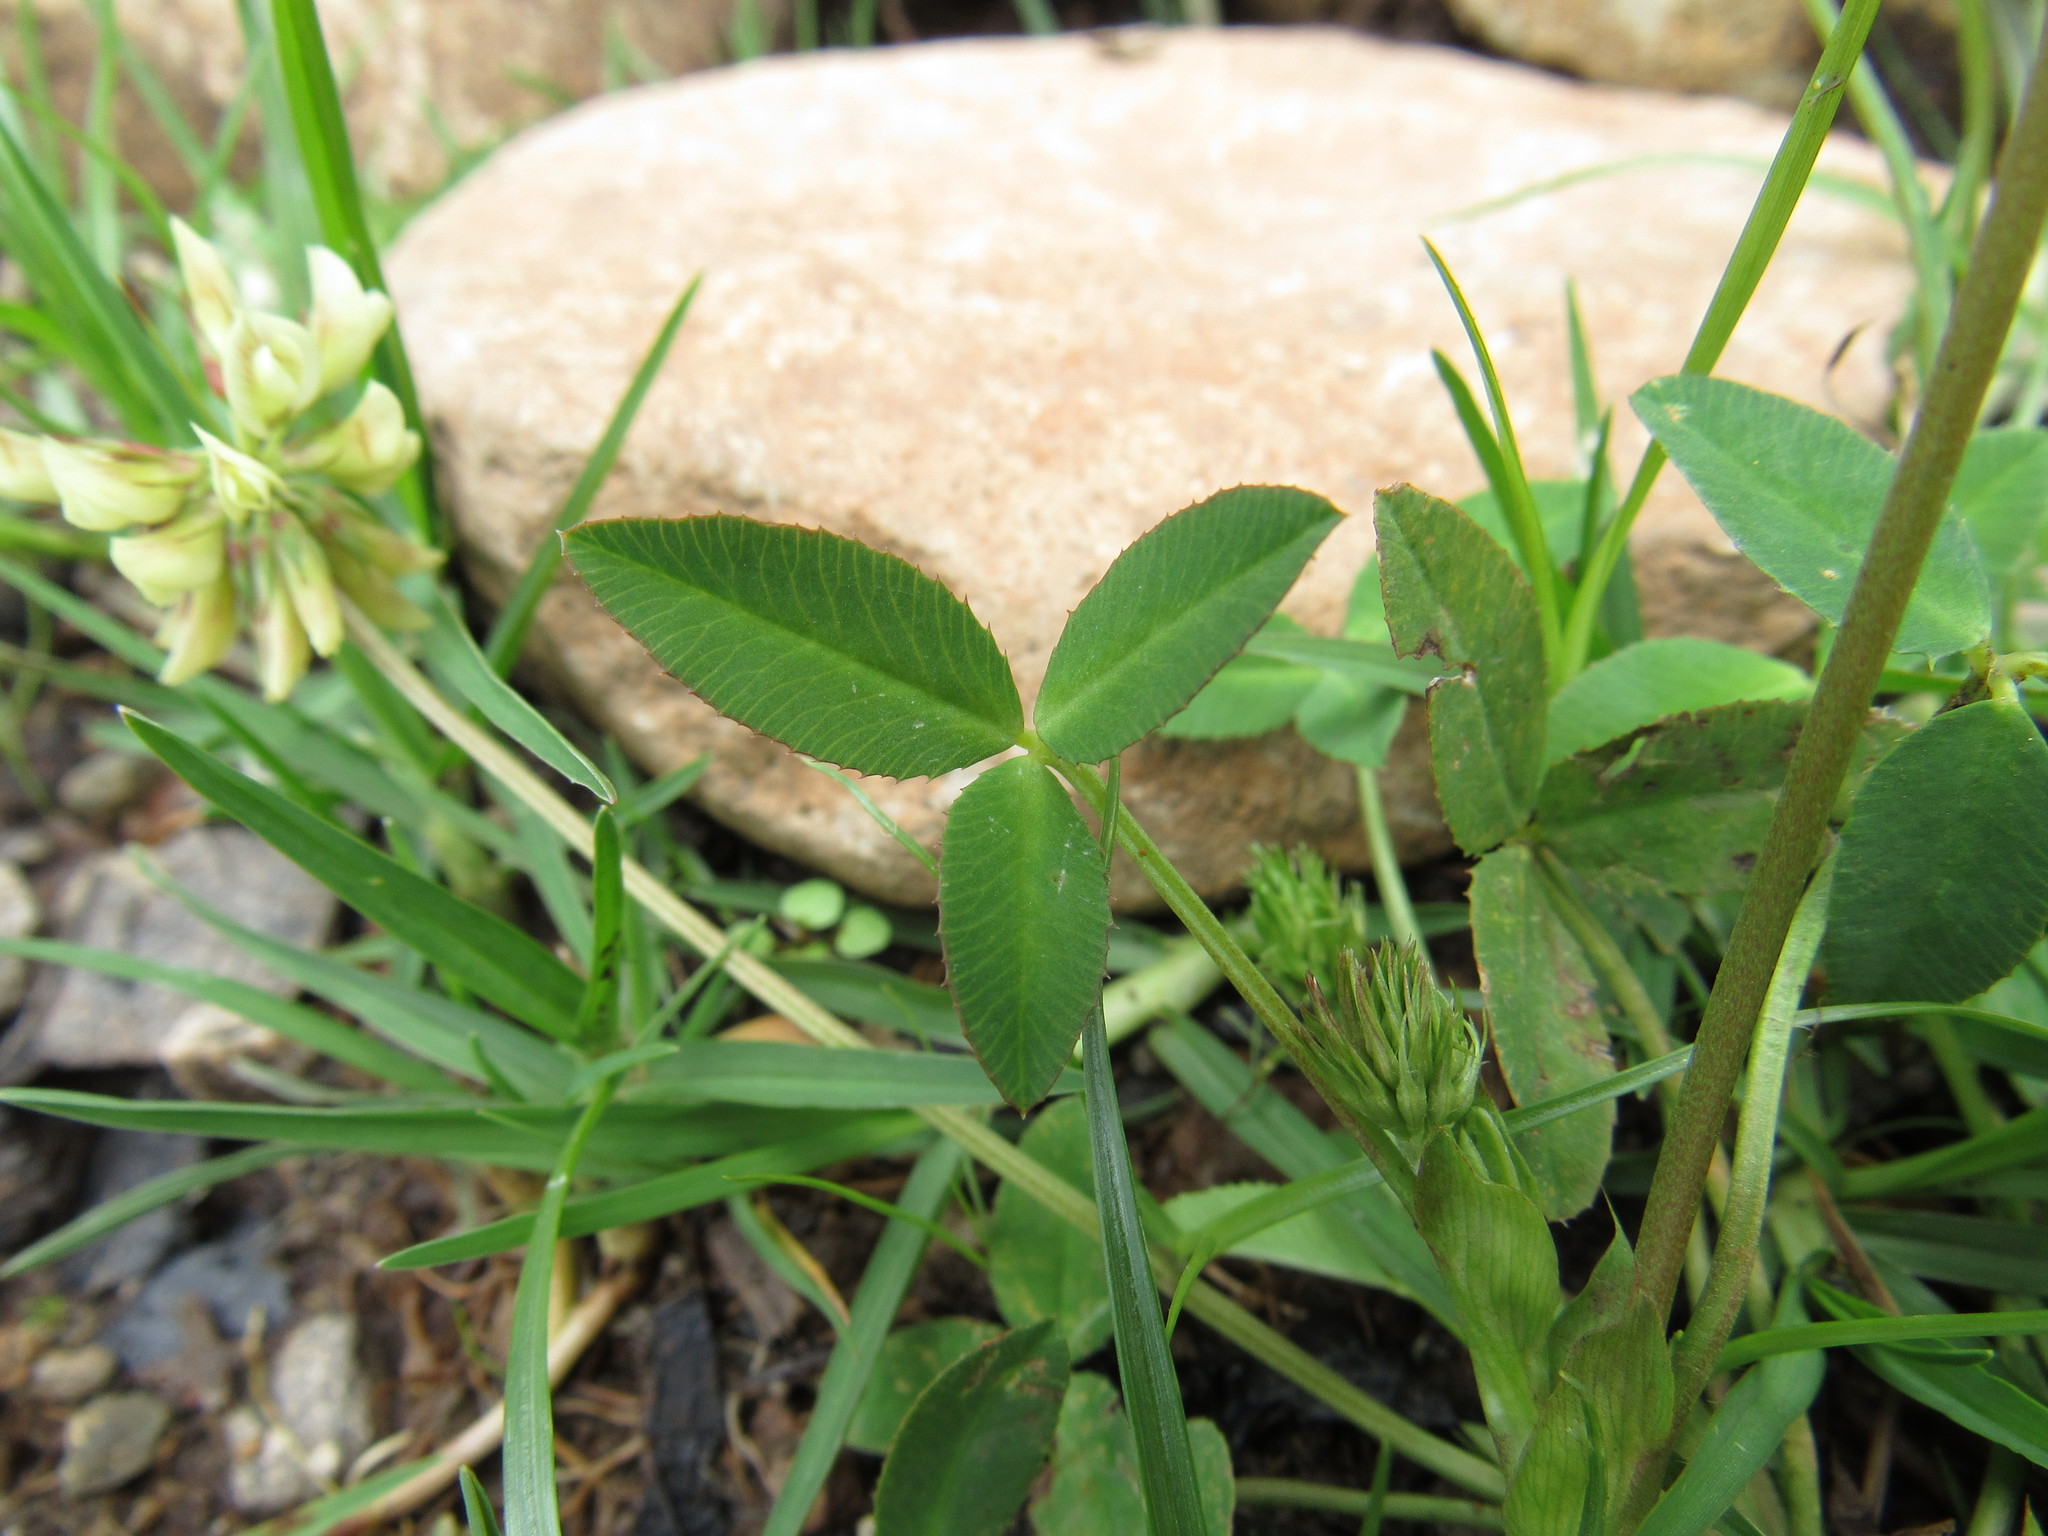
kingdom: Plantae
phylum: Tracheophyta
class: Magnoliopsida
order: Fabales
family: Fabaceae
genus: Trifolium
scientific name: Trifolium amabile
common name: Aztec clover
